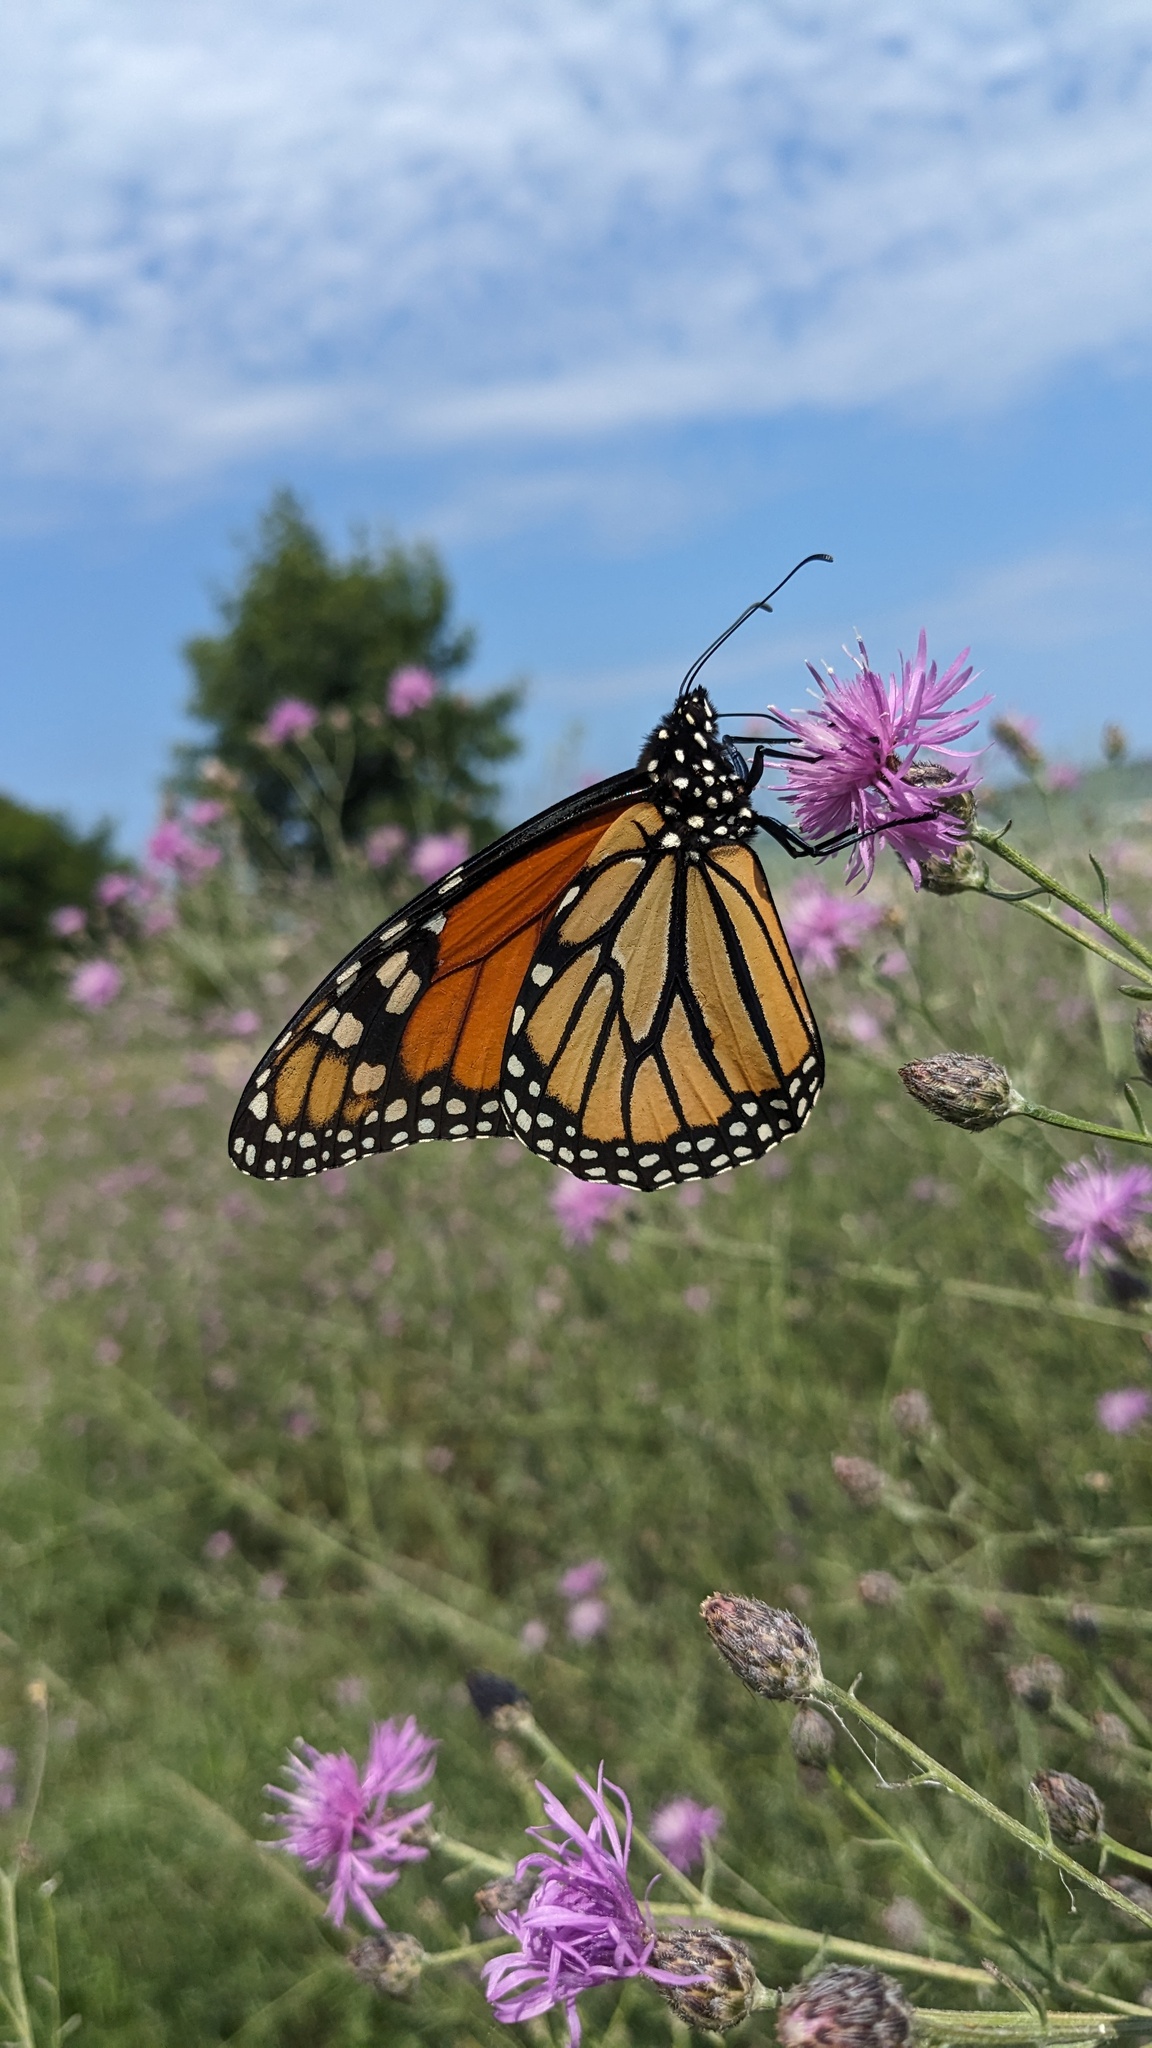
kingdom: Animalia
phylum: Arthropoda
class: Insecta
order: Lepidoptera
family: Nymphalidae
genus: Danaus
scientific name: Danaus plexippus
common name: Monarch
